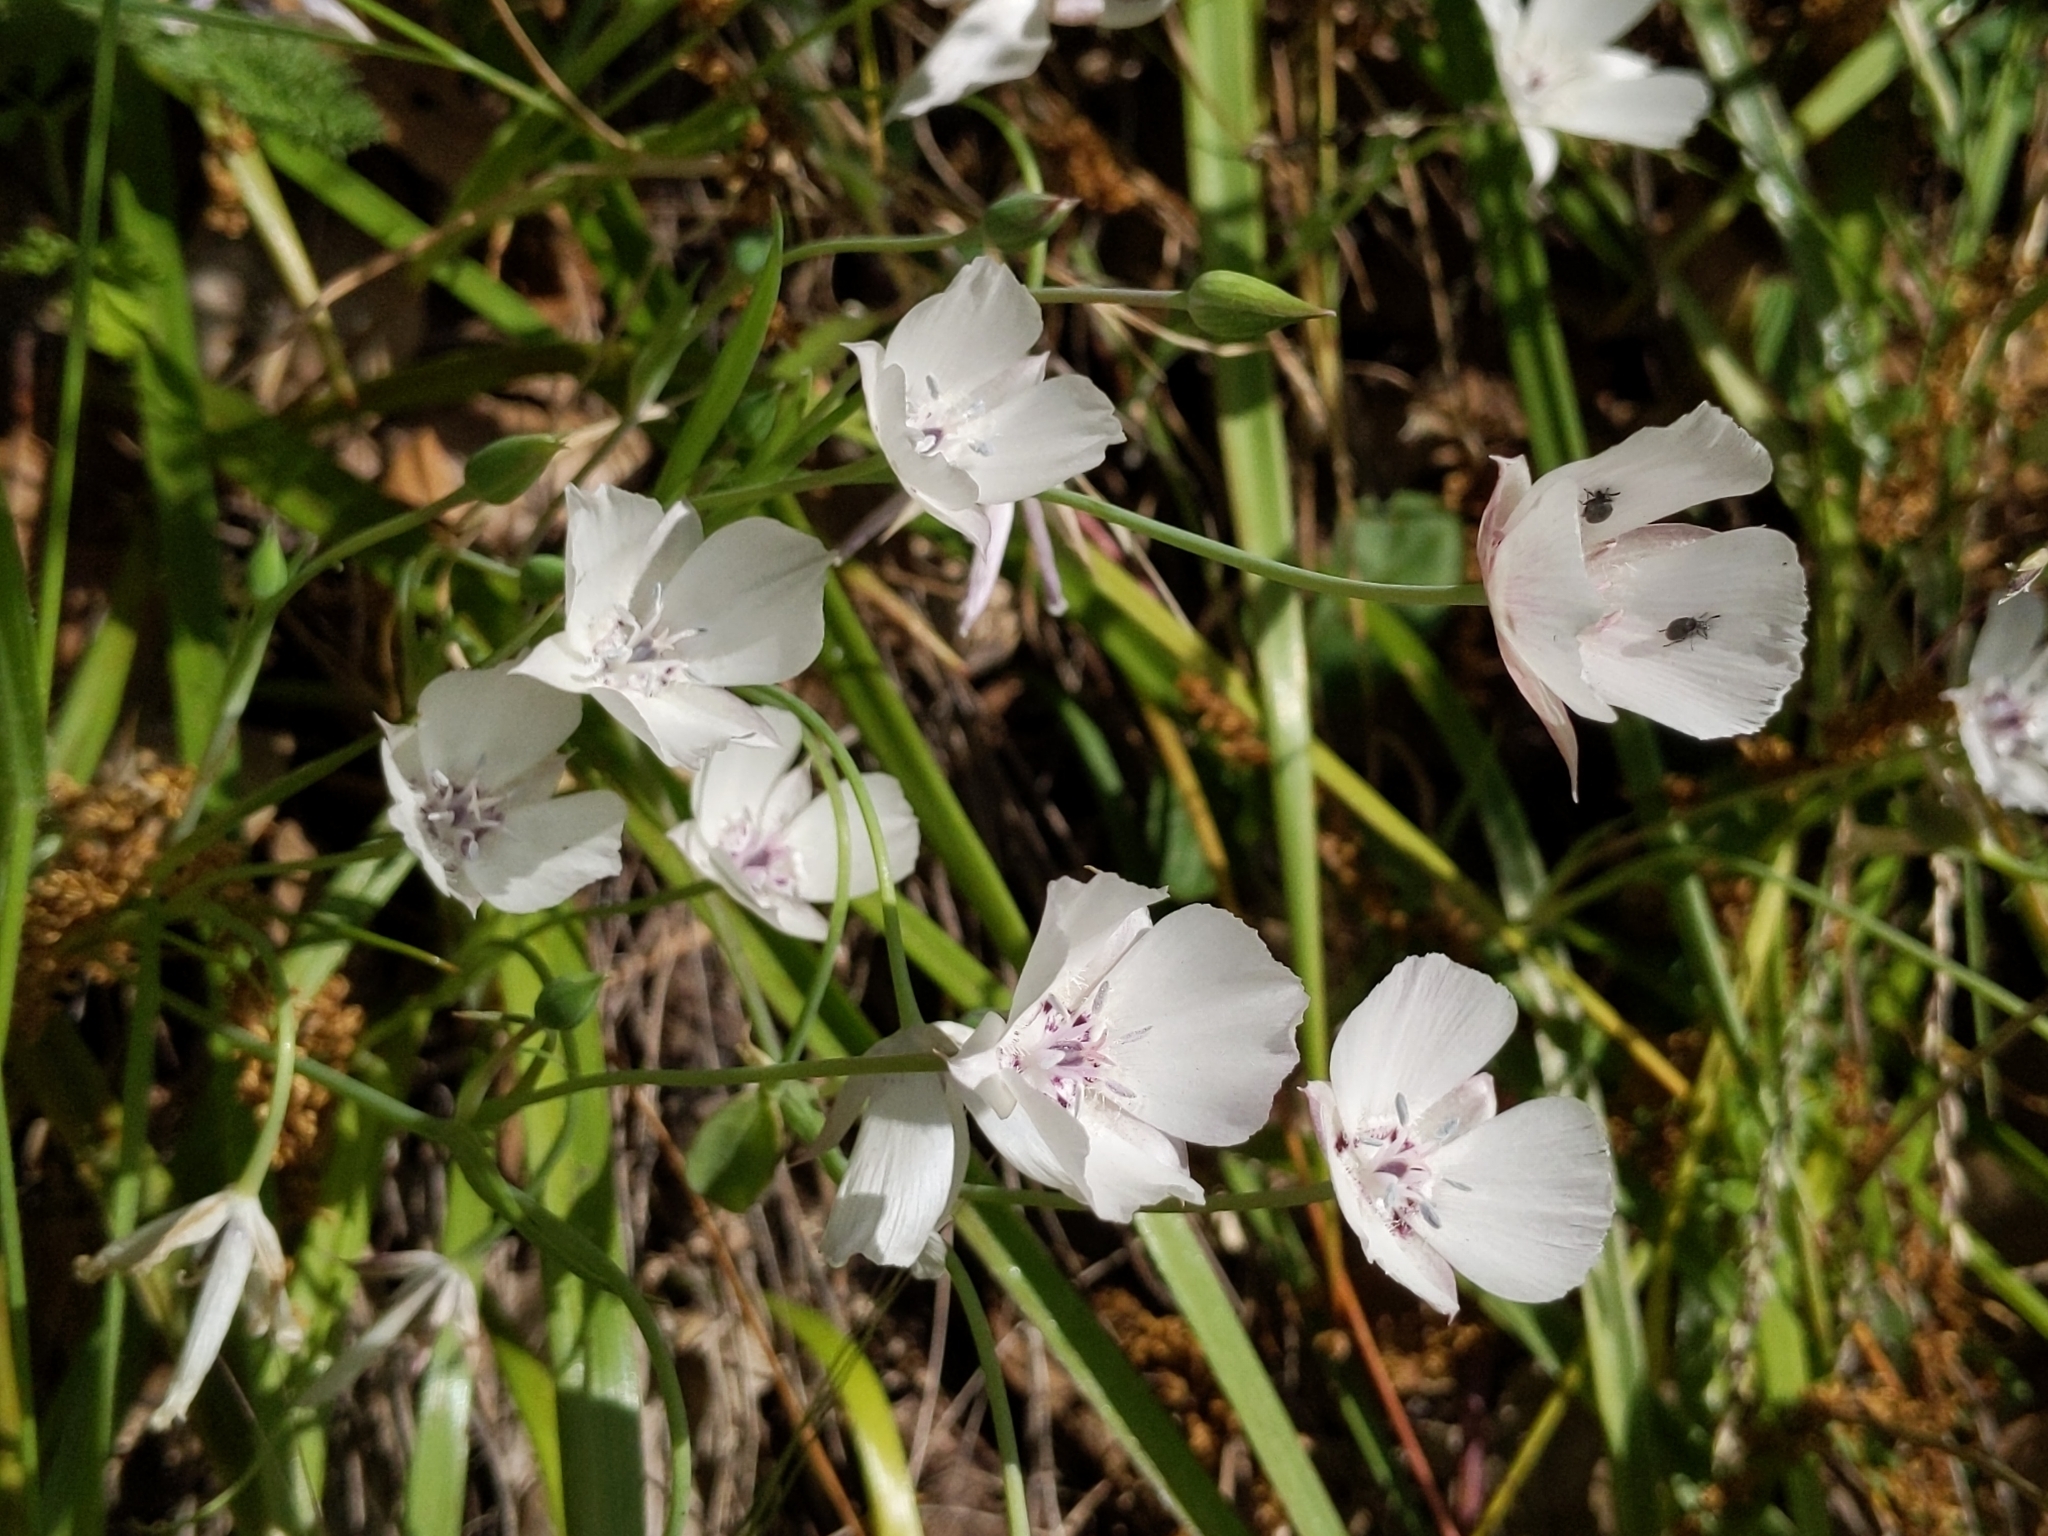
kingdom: Plantae
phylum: Tracheophyta
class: Liliopsida
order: Liliales
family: Liliaceae
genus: Calochortus
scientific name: Calochortus umbellatus
